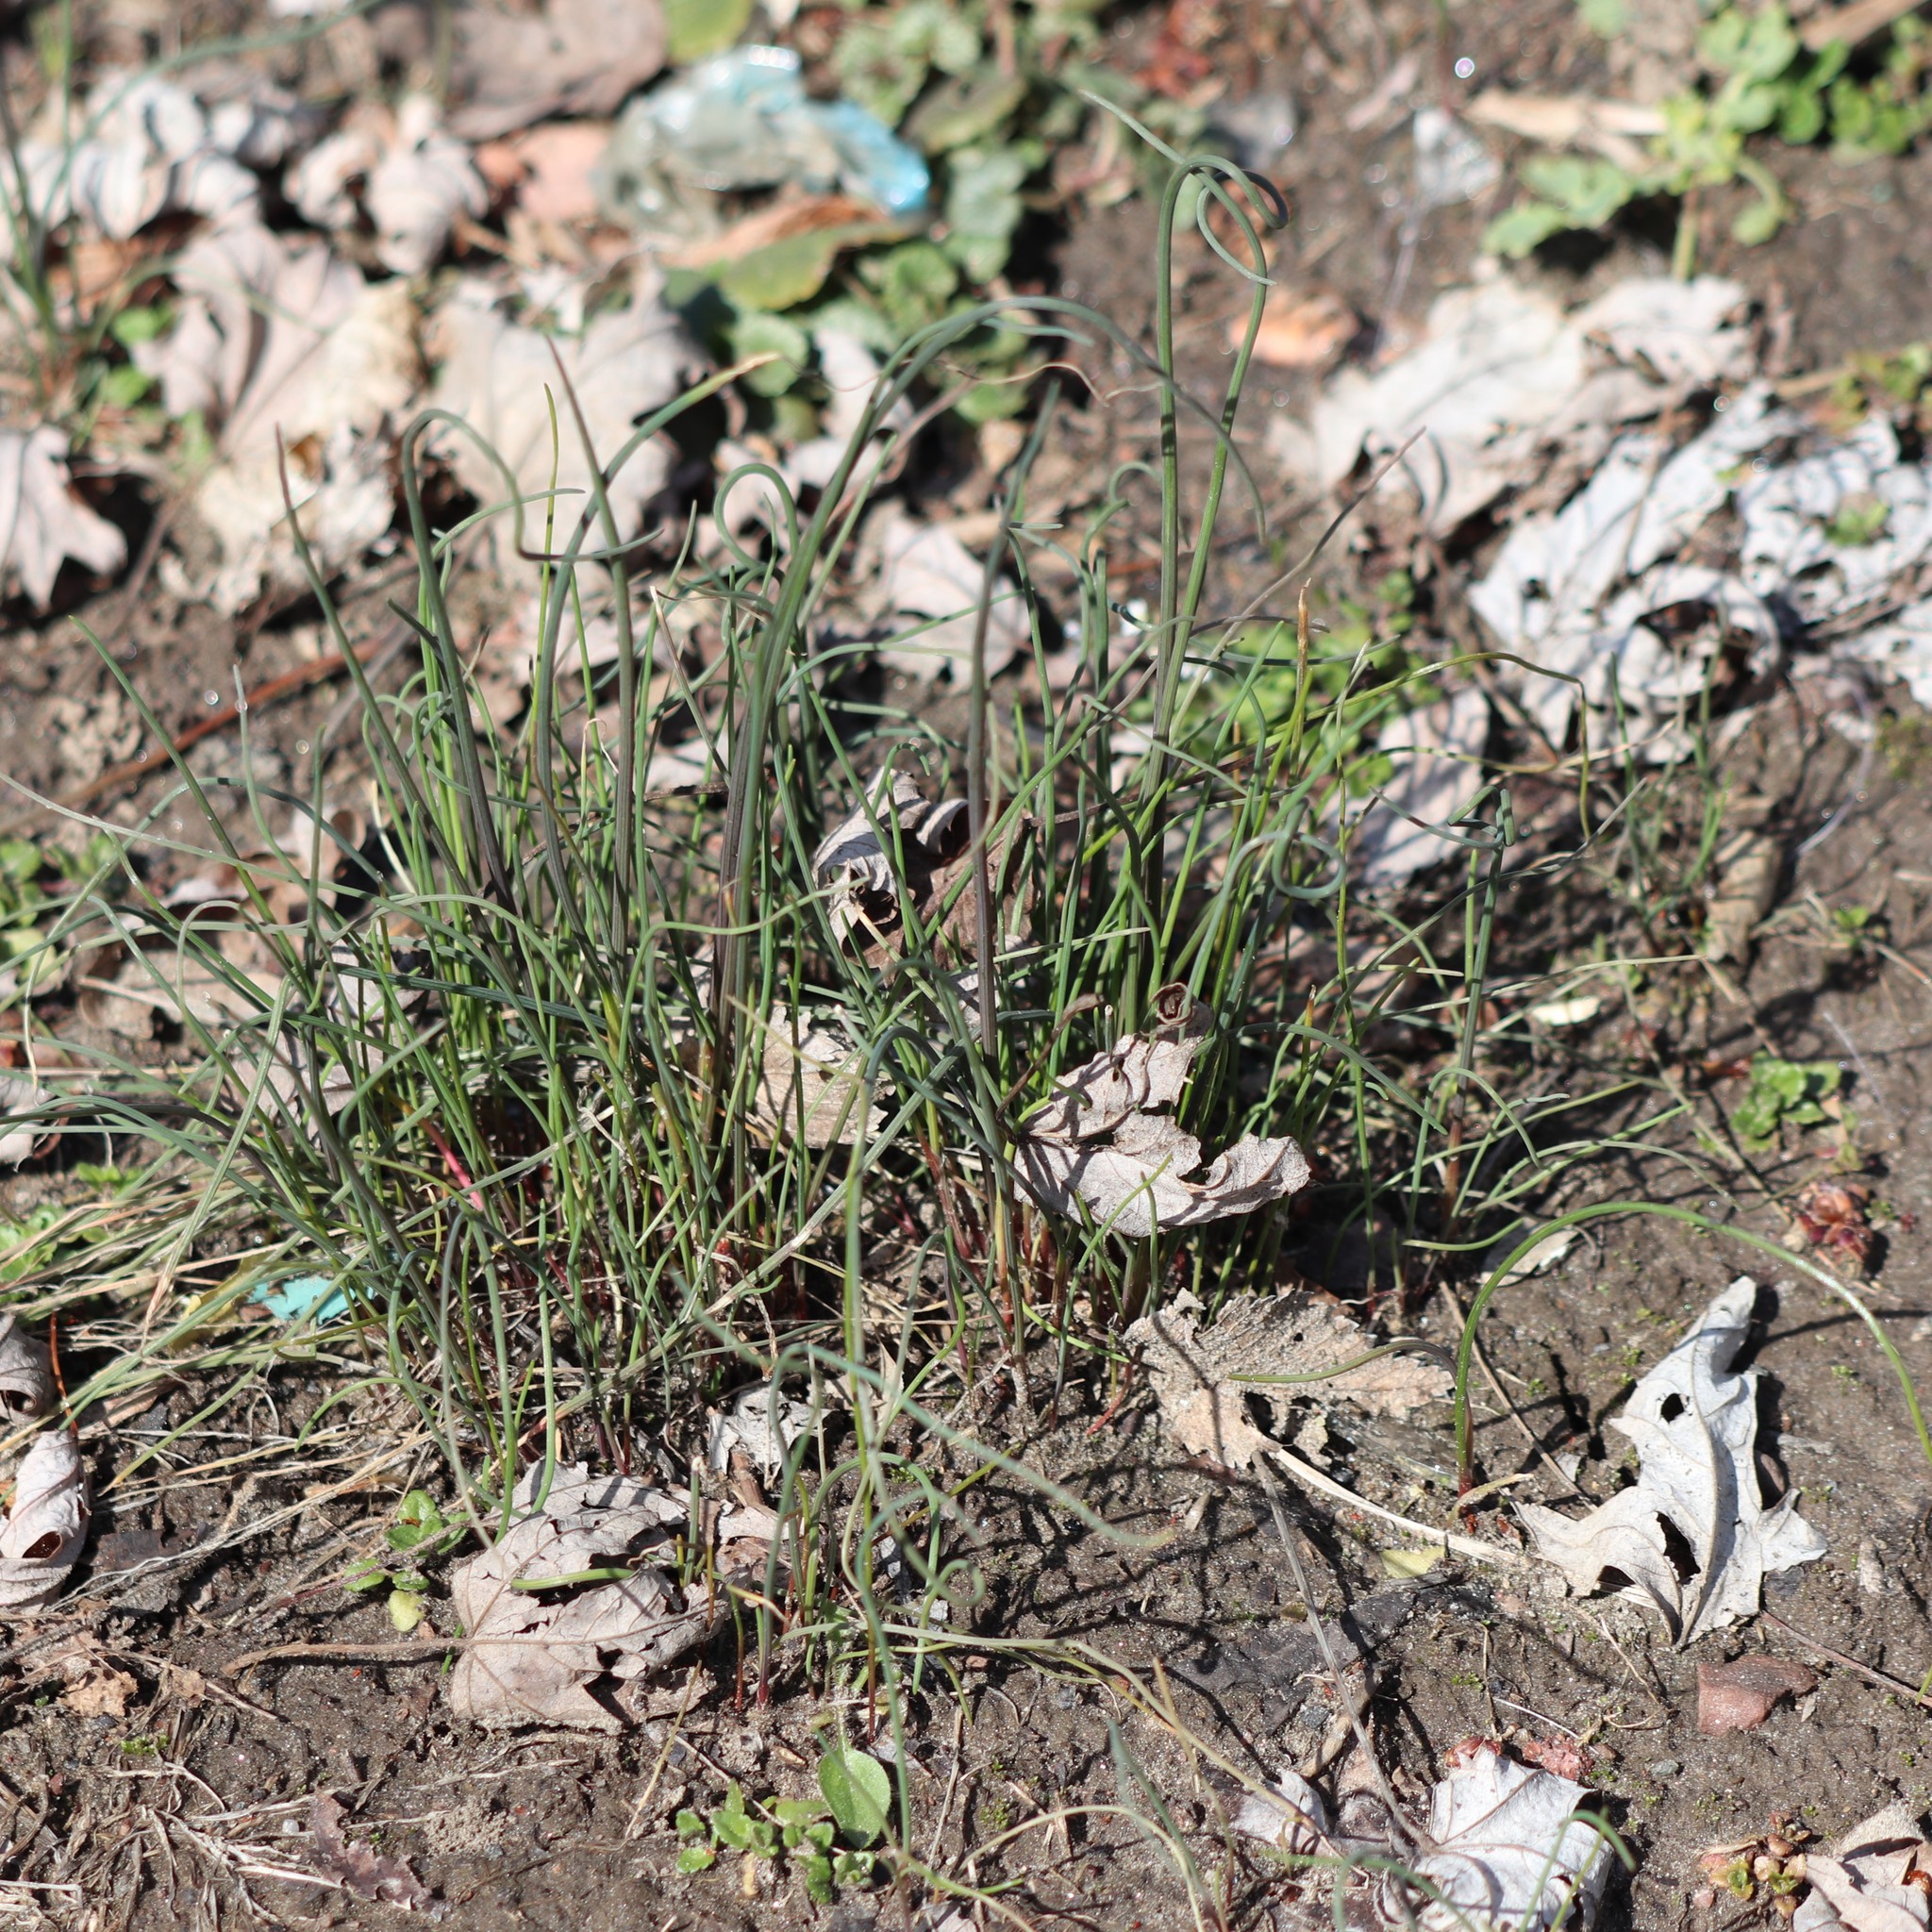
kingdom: Plantae
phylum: Tracheophyta
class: Liliopsida
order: Asparagales
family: Amaryllidaceae
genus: Allium
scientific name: Allium vineale
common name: Crow garlic
